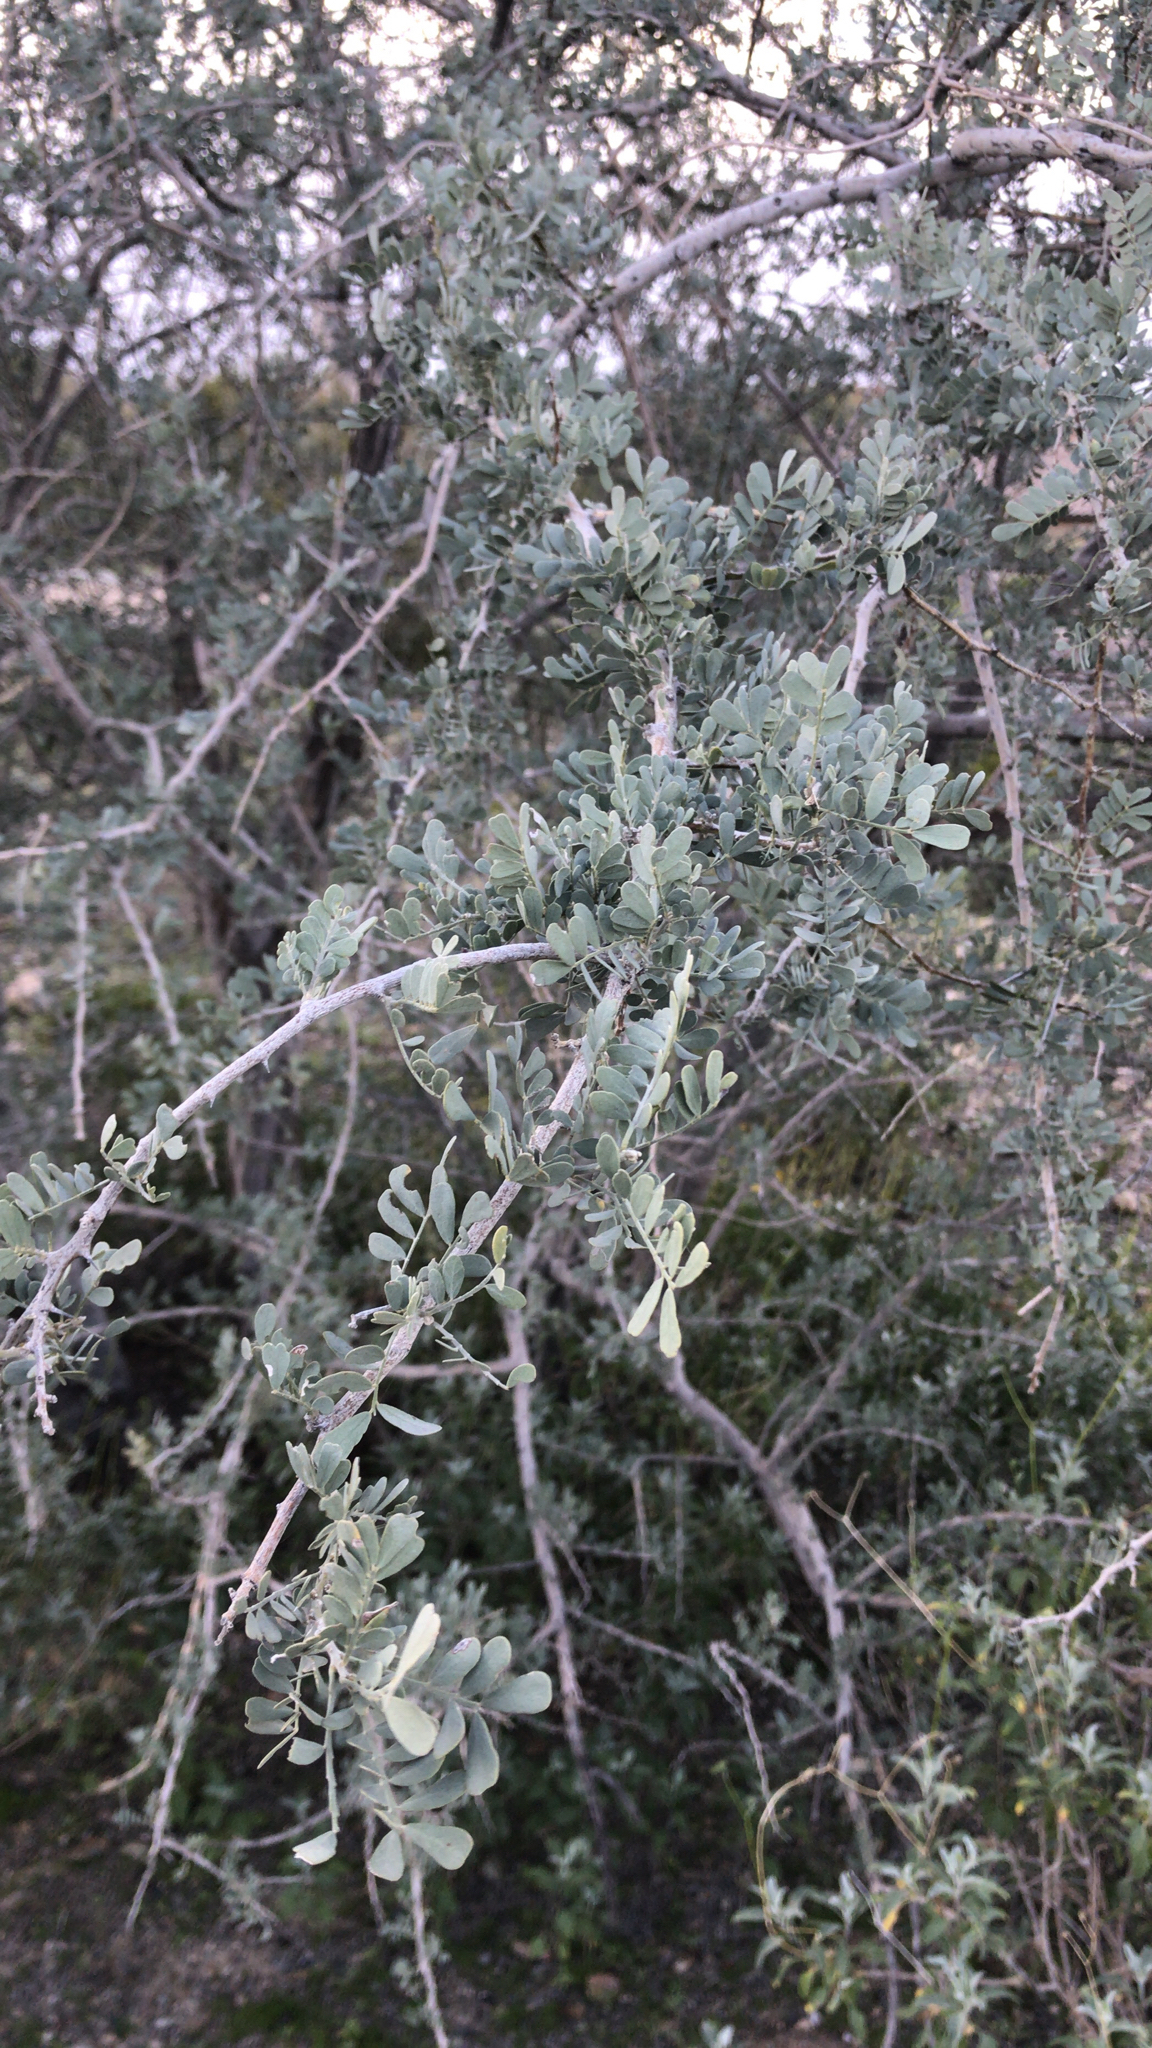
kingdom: Plantae
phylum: Tracheophyta
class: Magnoliopsida
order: Fabales
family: Fabaceae
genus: Olneya
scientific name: Olneya tesota
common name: Desert ironwood
